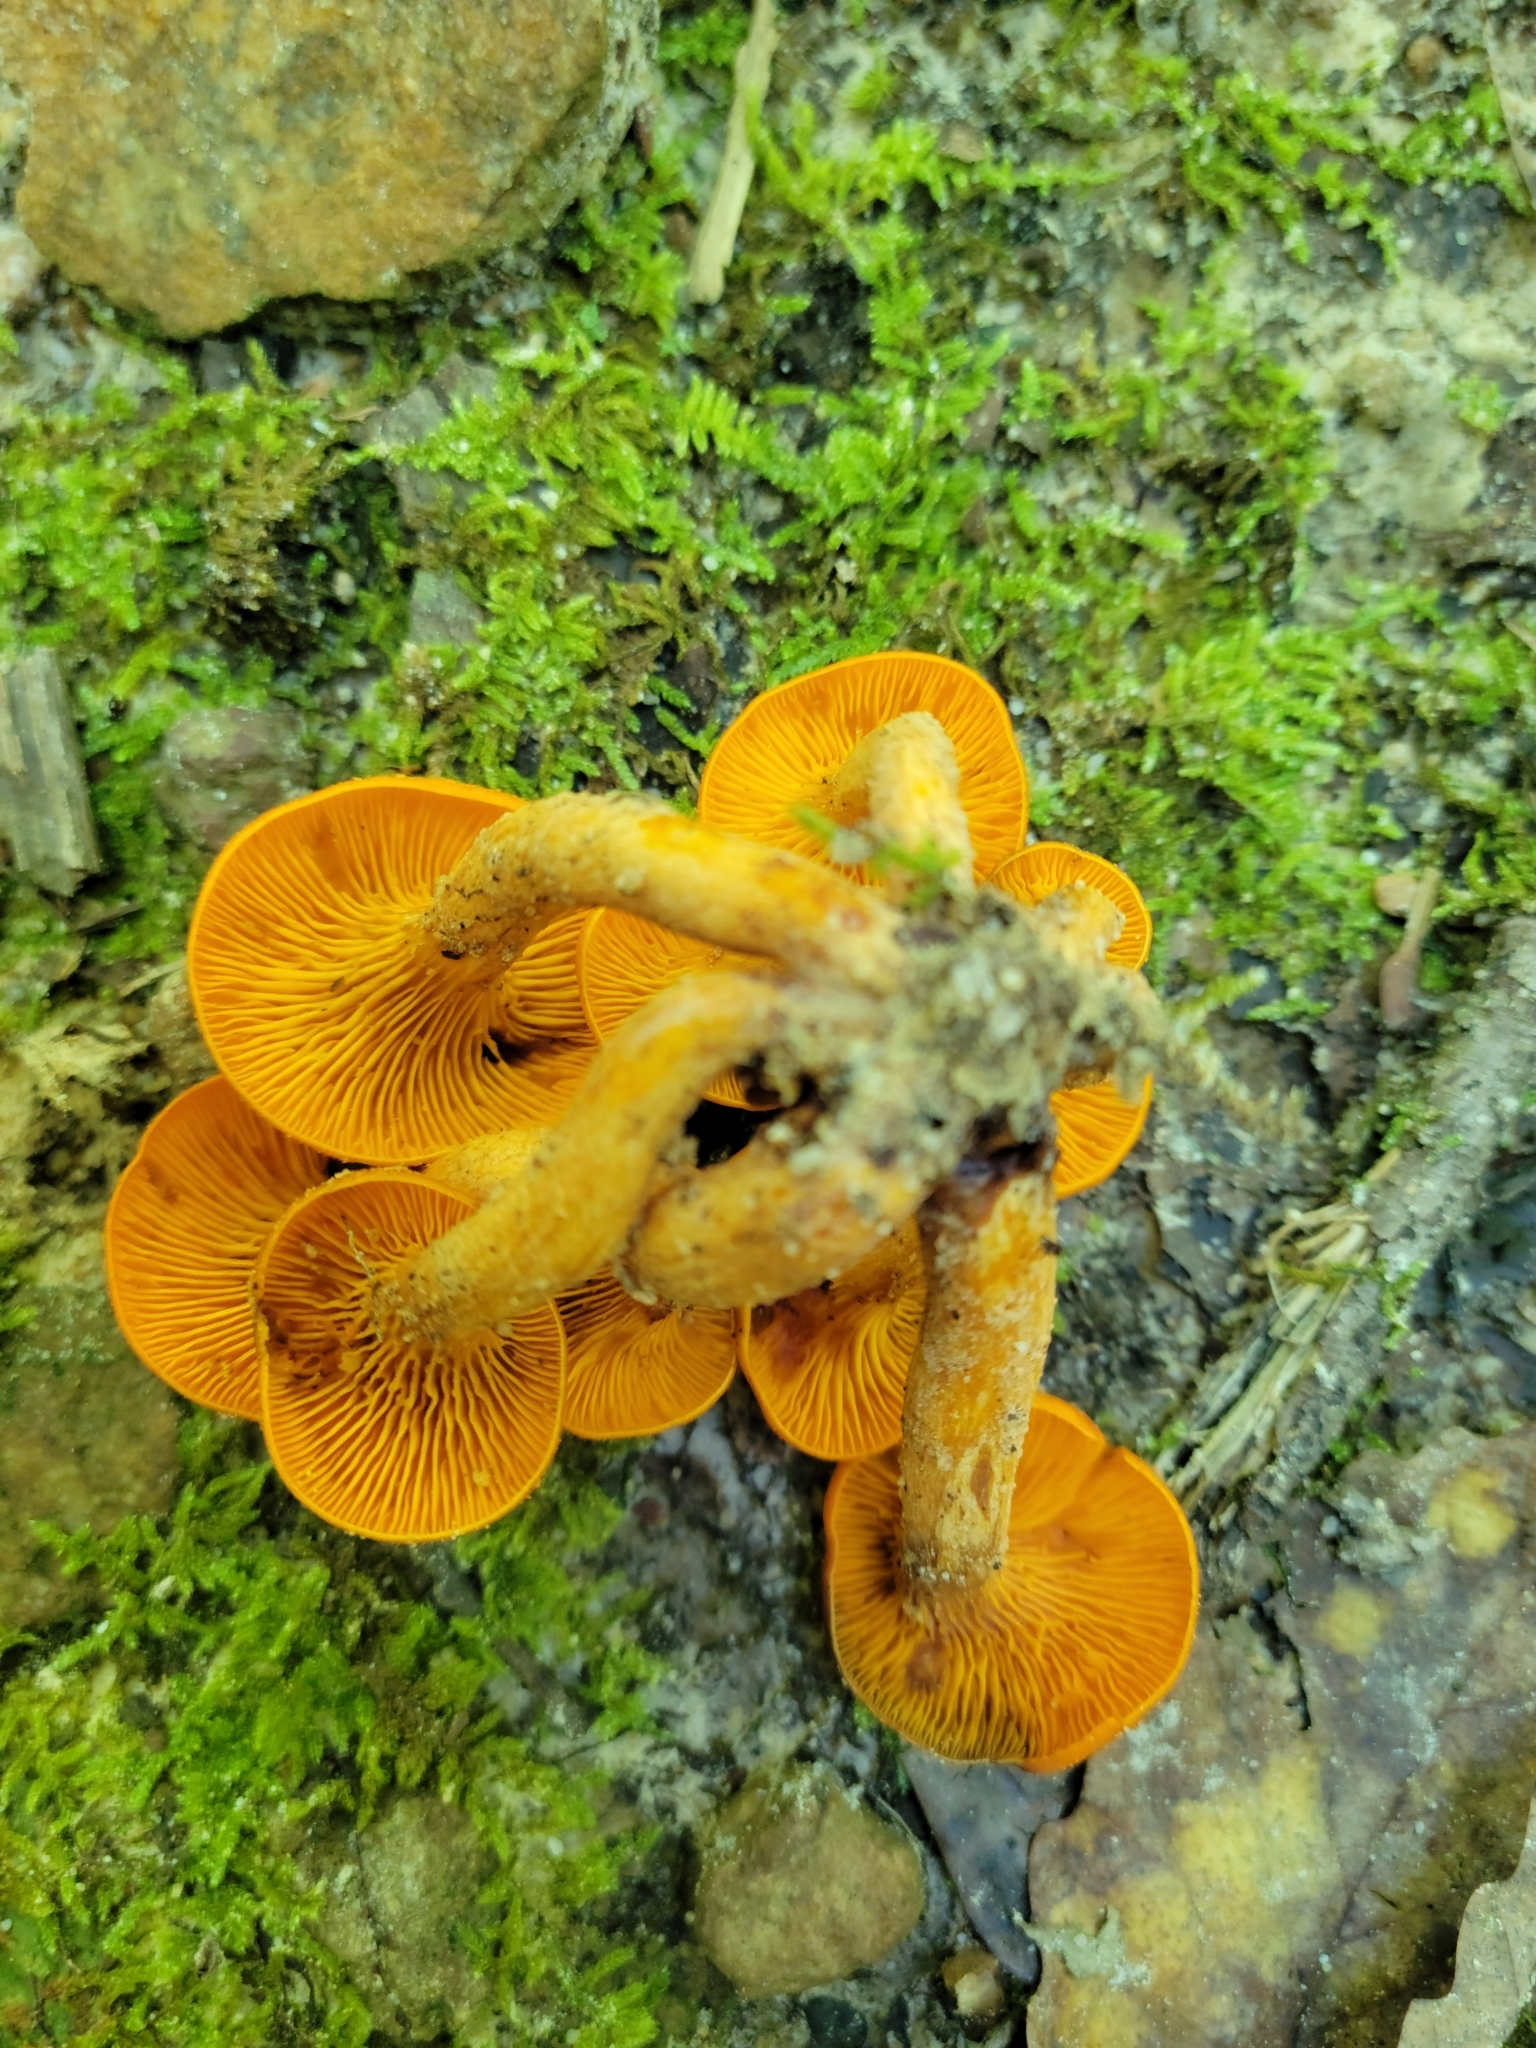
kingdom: Fungi
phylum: Basidiomycota
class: Agaricomycetes
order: Agaricales
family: Omphalotaceae
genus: Omphalotus
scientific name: Omphalotus illudens
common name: Jack o lantern
